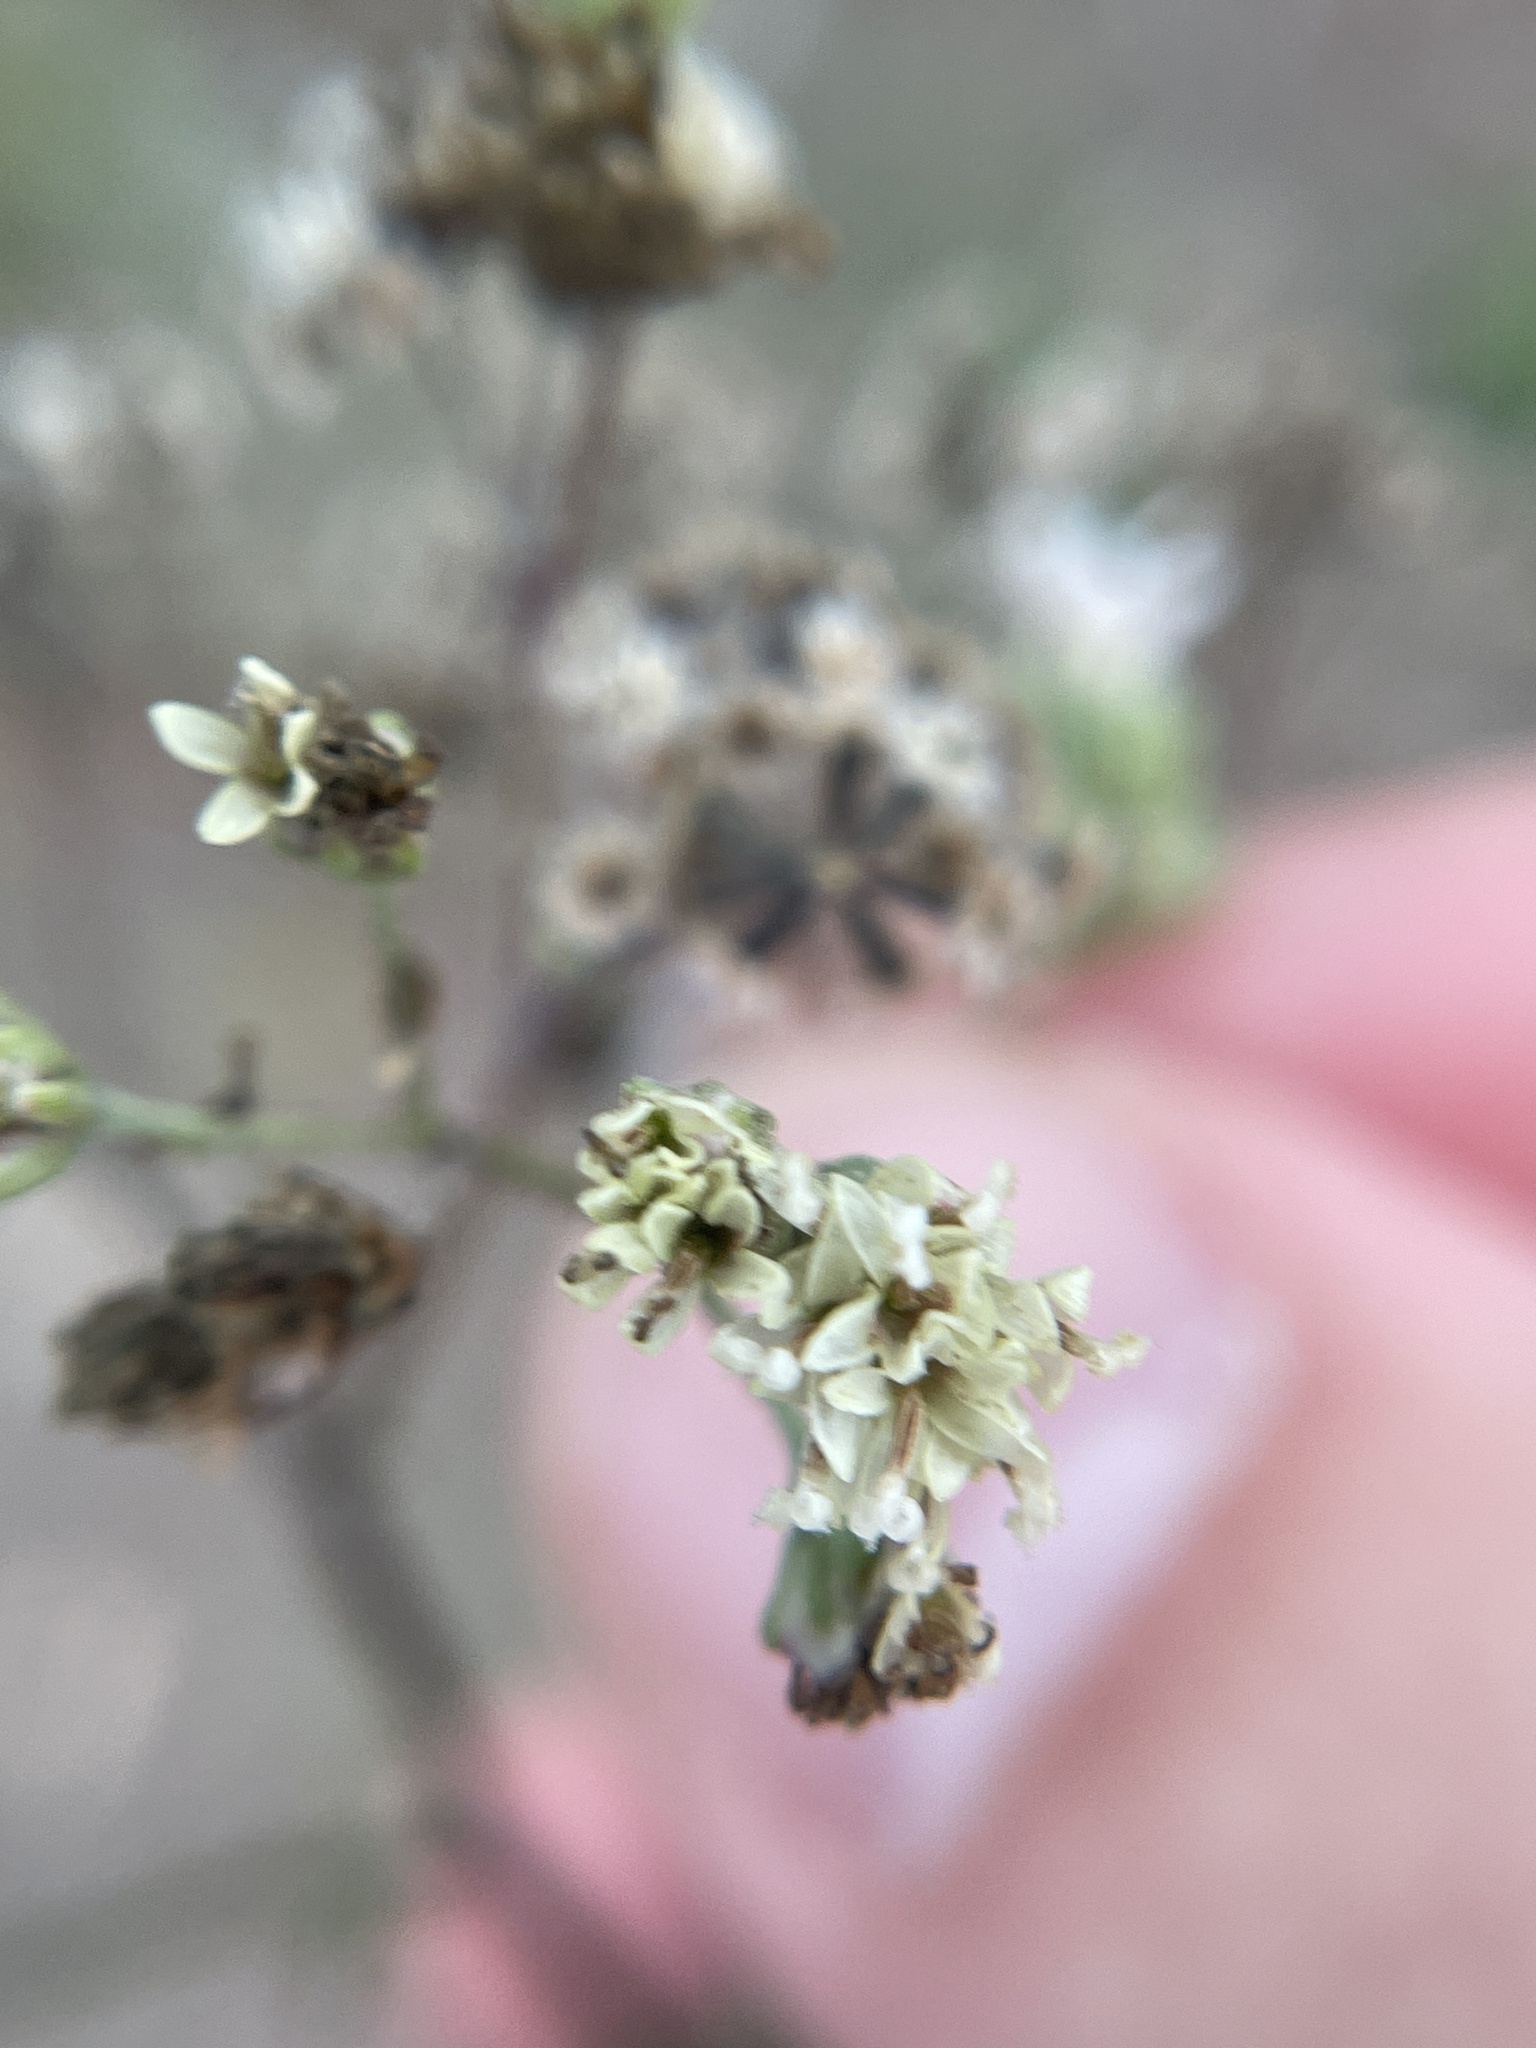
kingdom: Plantae
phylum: Tracheophyta
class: Magnoliopsida
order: Asterales
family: Asteraceae
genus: Florestina
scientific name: Florestina tripteris
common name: Sticky florestina
